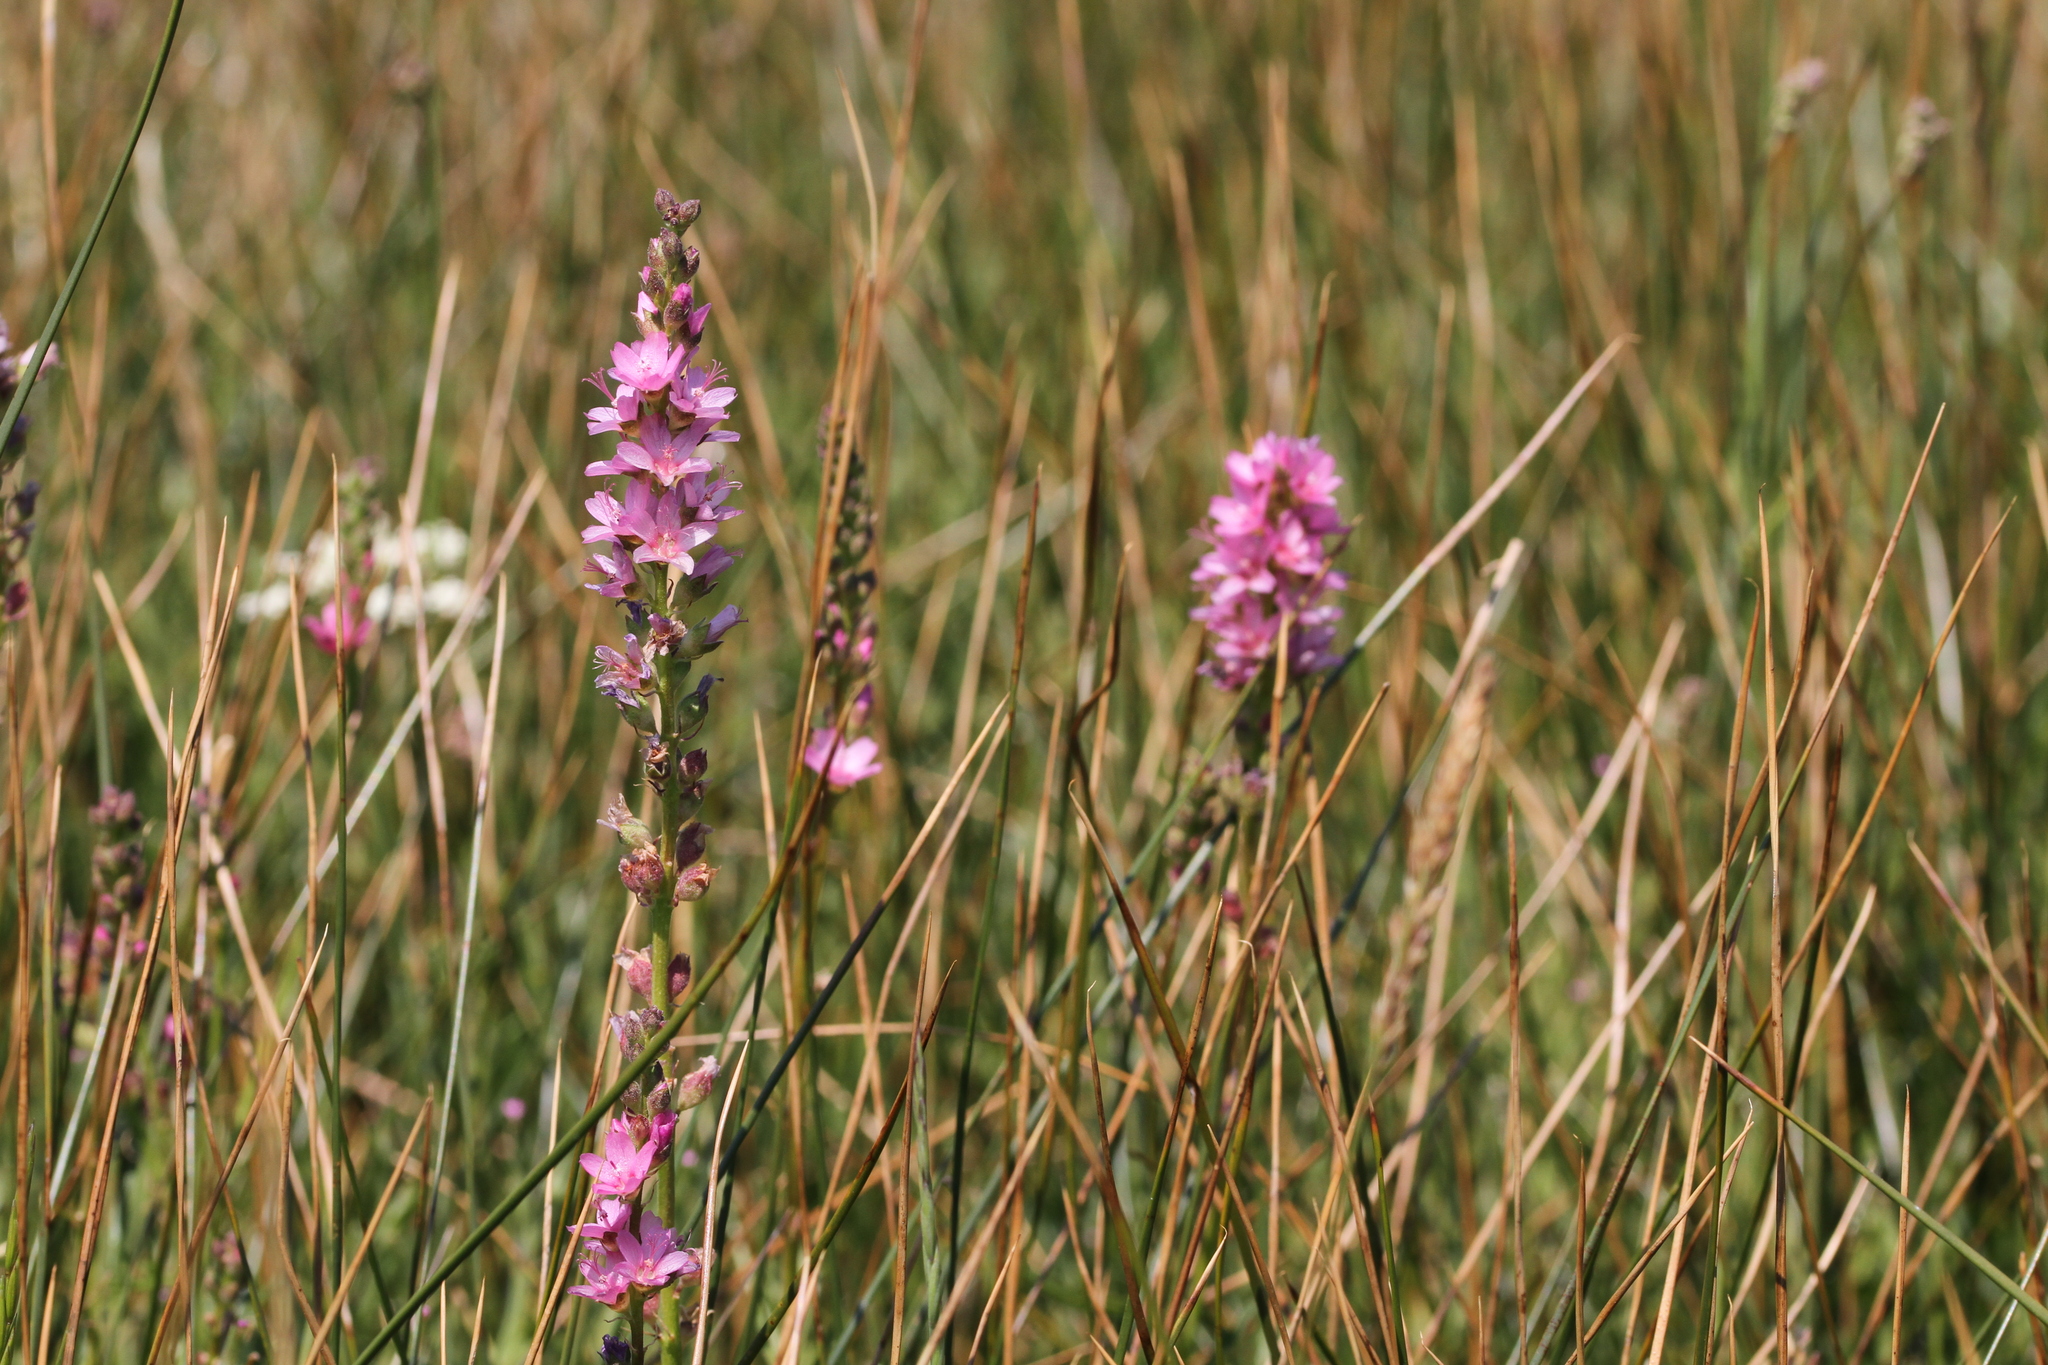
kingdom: Plantae
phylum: Tracheophyta
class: Magnoliopsida
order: Malvales
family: Malvaceae
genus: Sidalcea
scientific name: Sidalcea oregana
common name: Oregon checker-mallow
